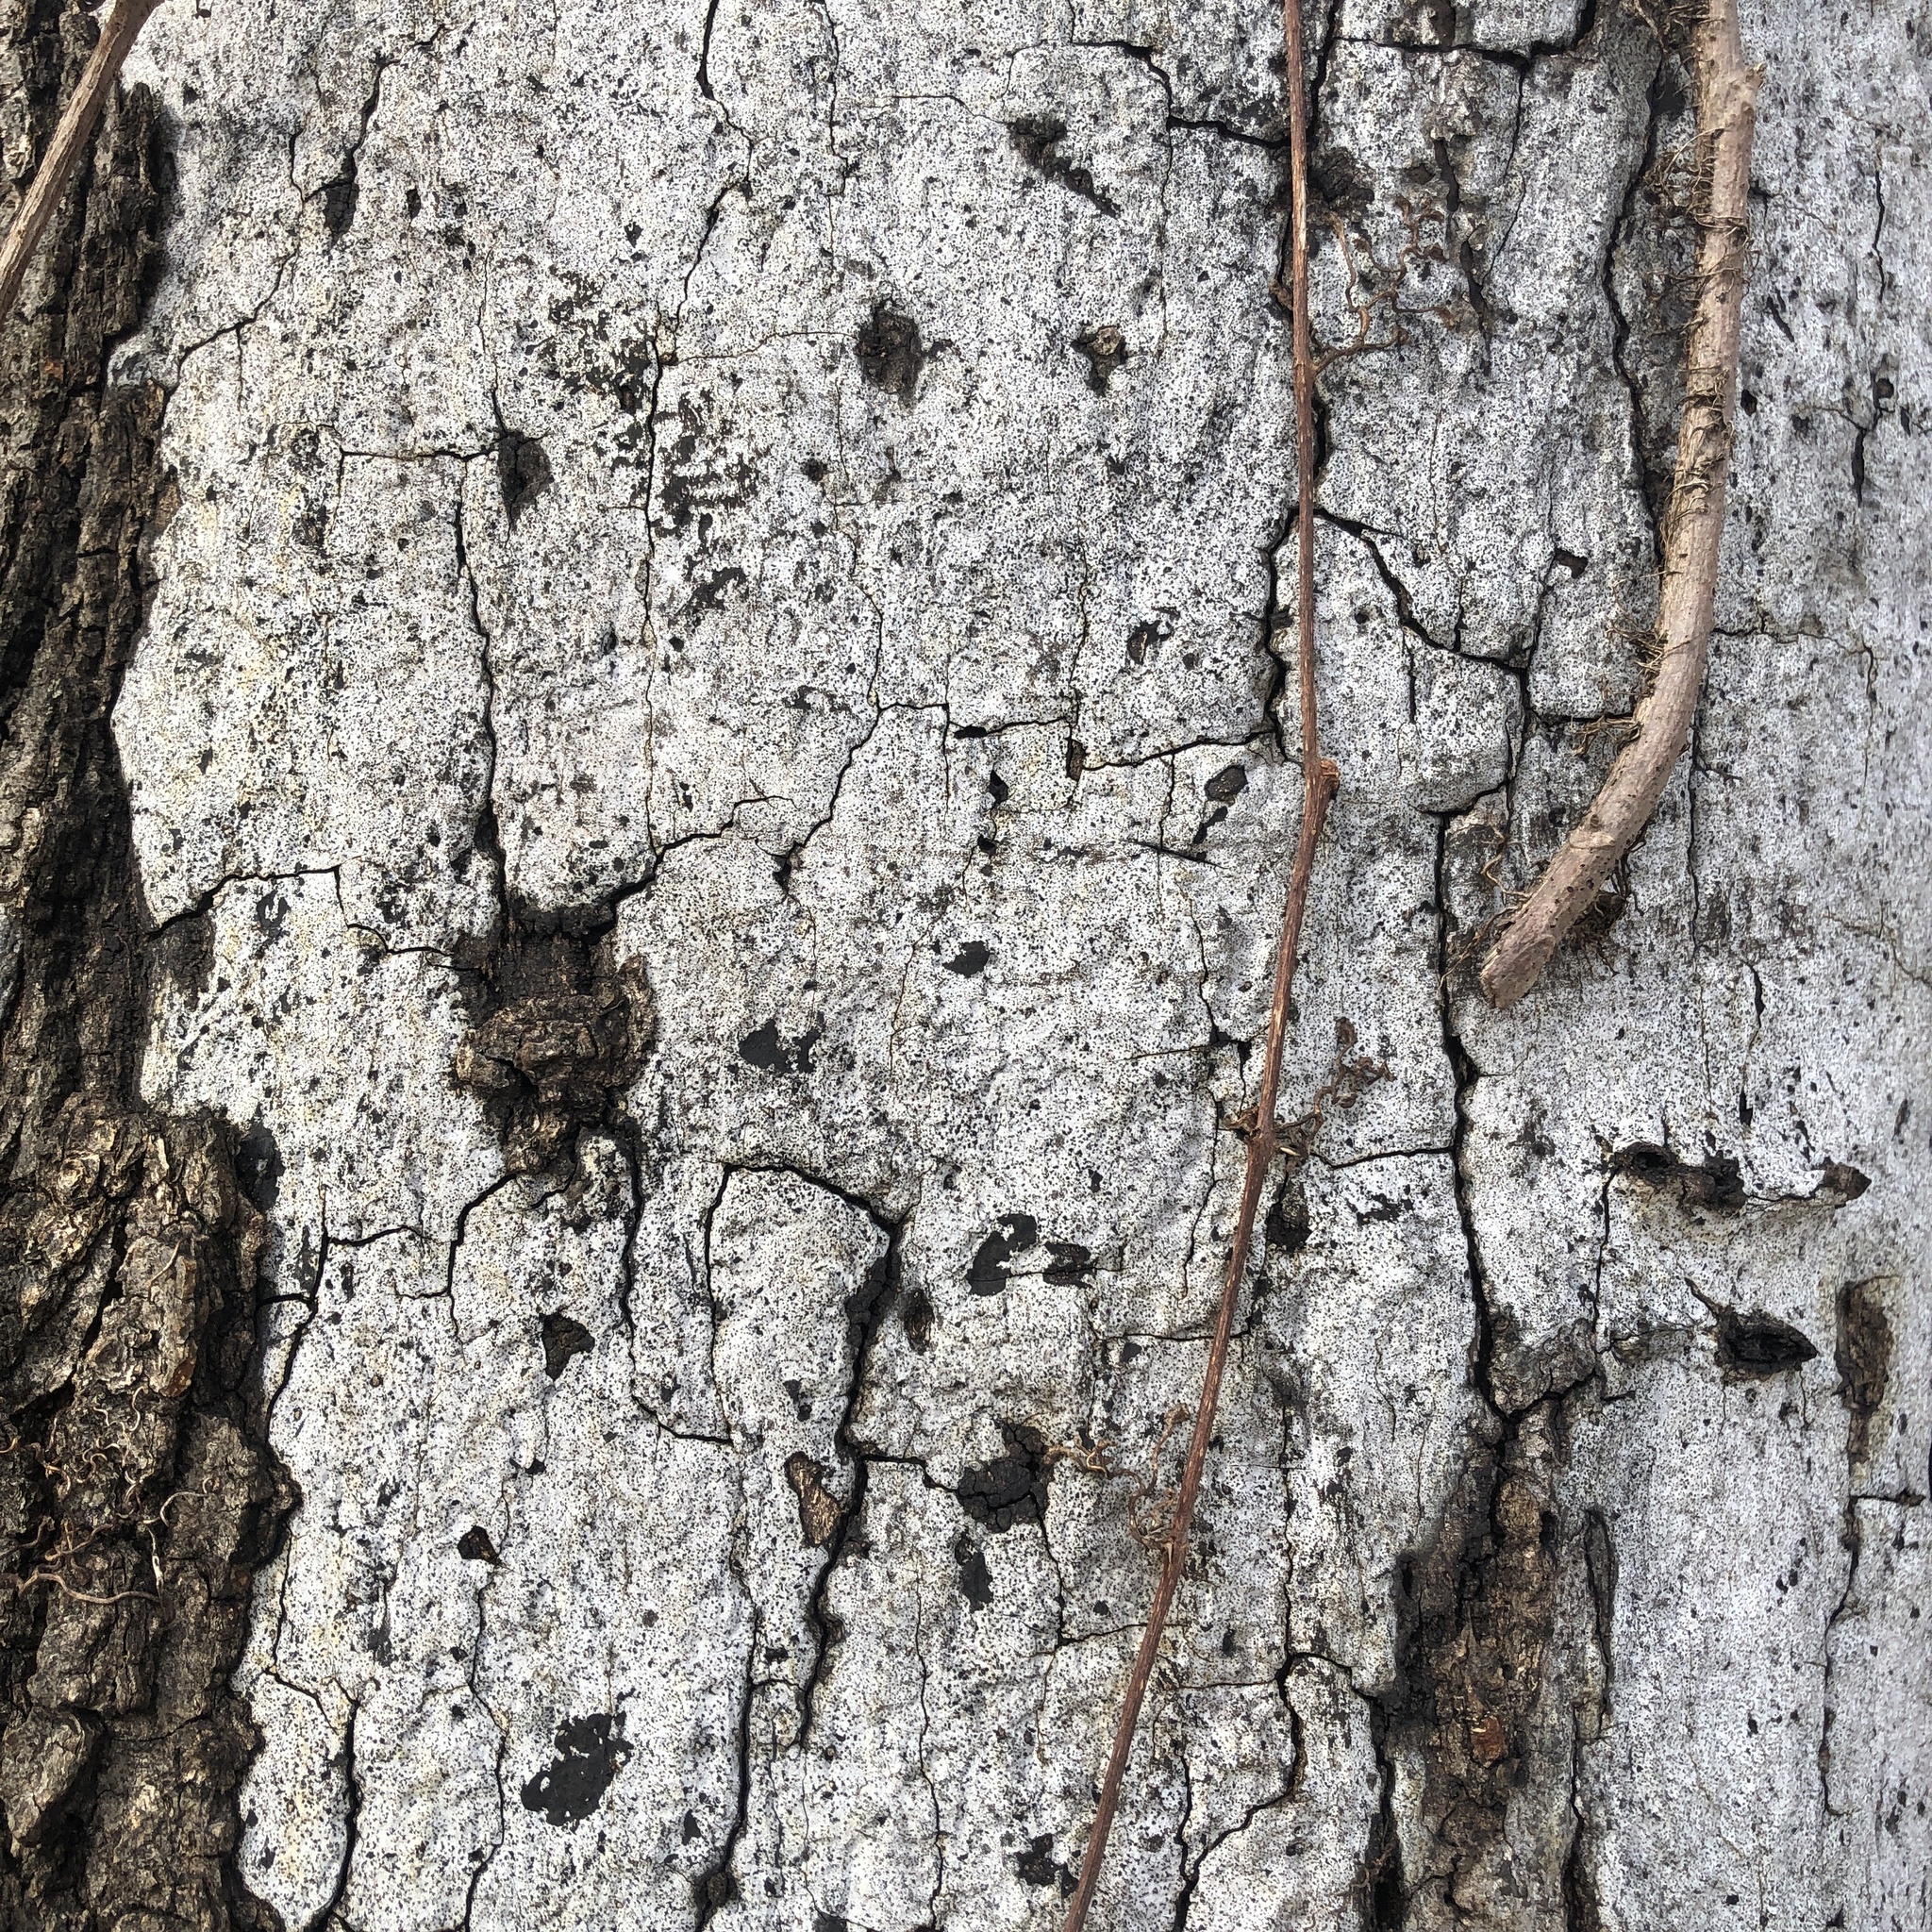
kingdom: Fungi
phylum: Ascomycota
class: Sordariomycetes
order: Xylariales
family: Graphostromataceae
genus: Biscogniauxia
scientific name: Biscogniauxia atropunctata
